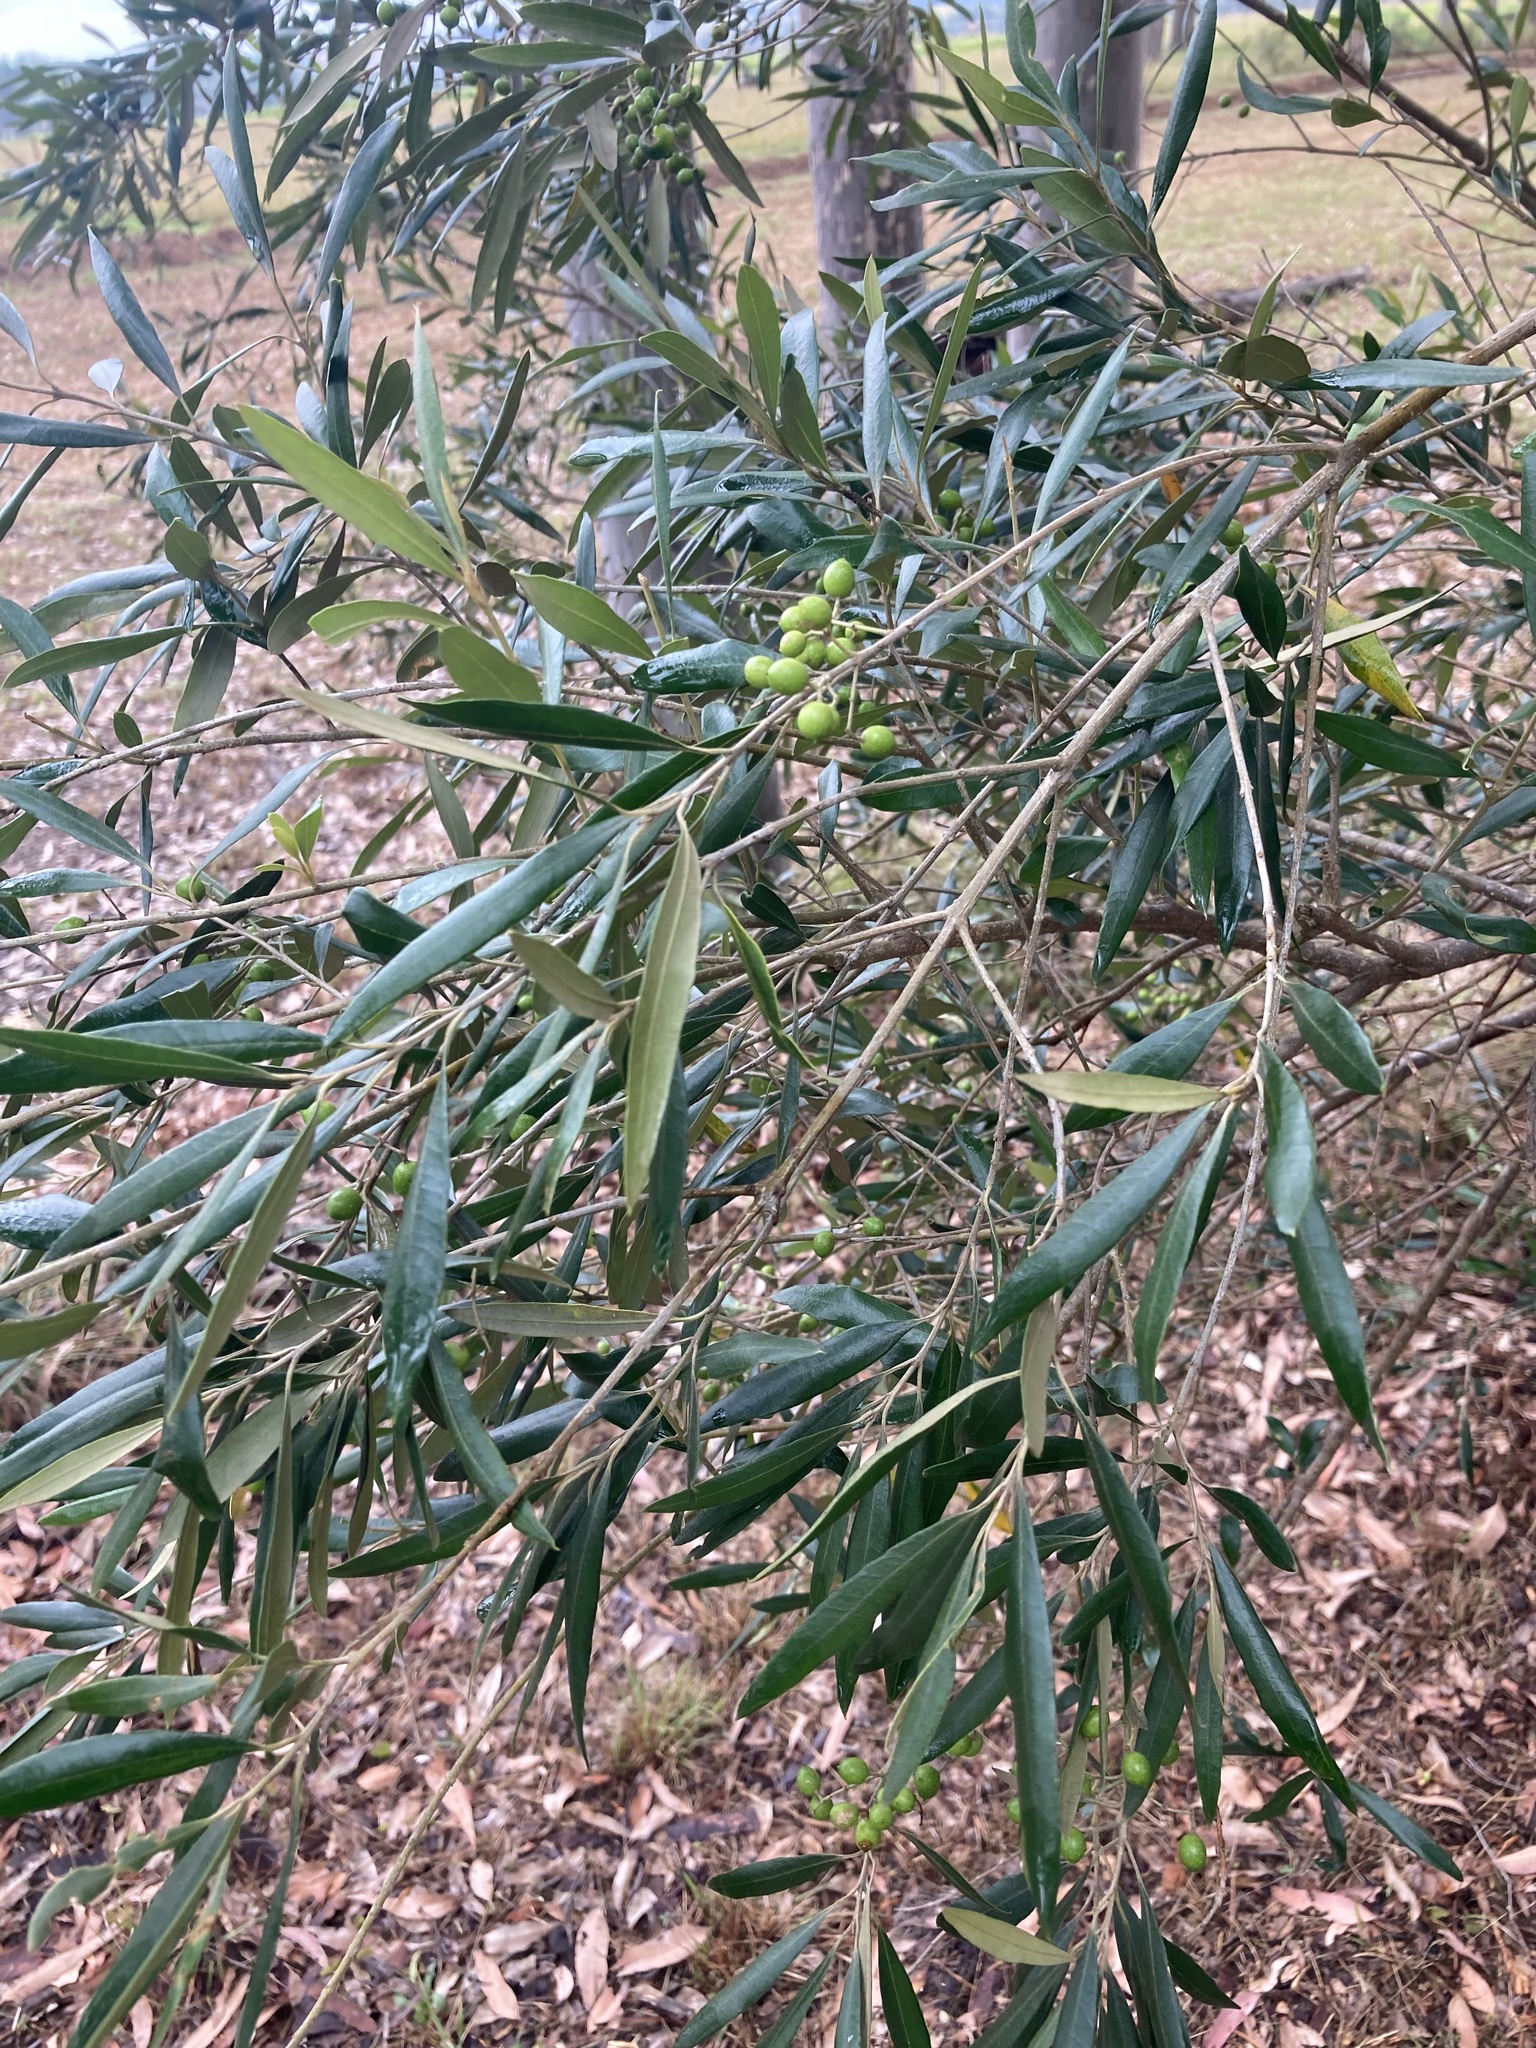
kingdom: Plantae
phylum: Tracheophyta
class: Magnoliopsida
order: Lamiales
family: Oleaceae
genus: Olea
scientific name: Olea europaea
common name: Olive
